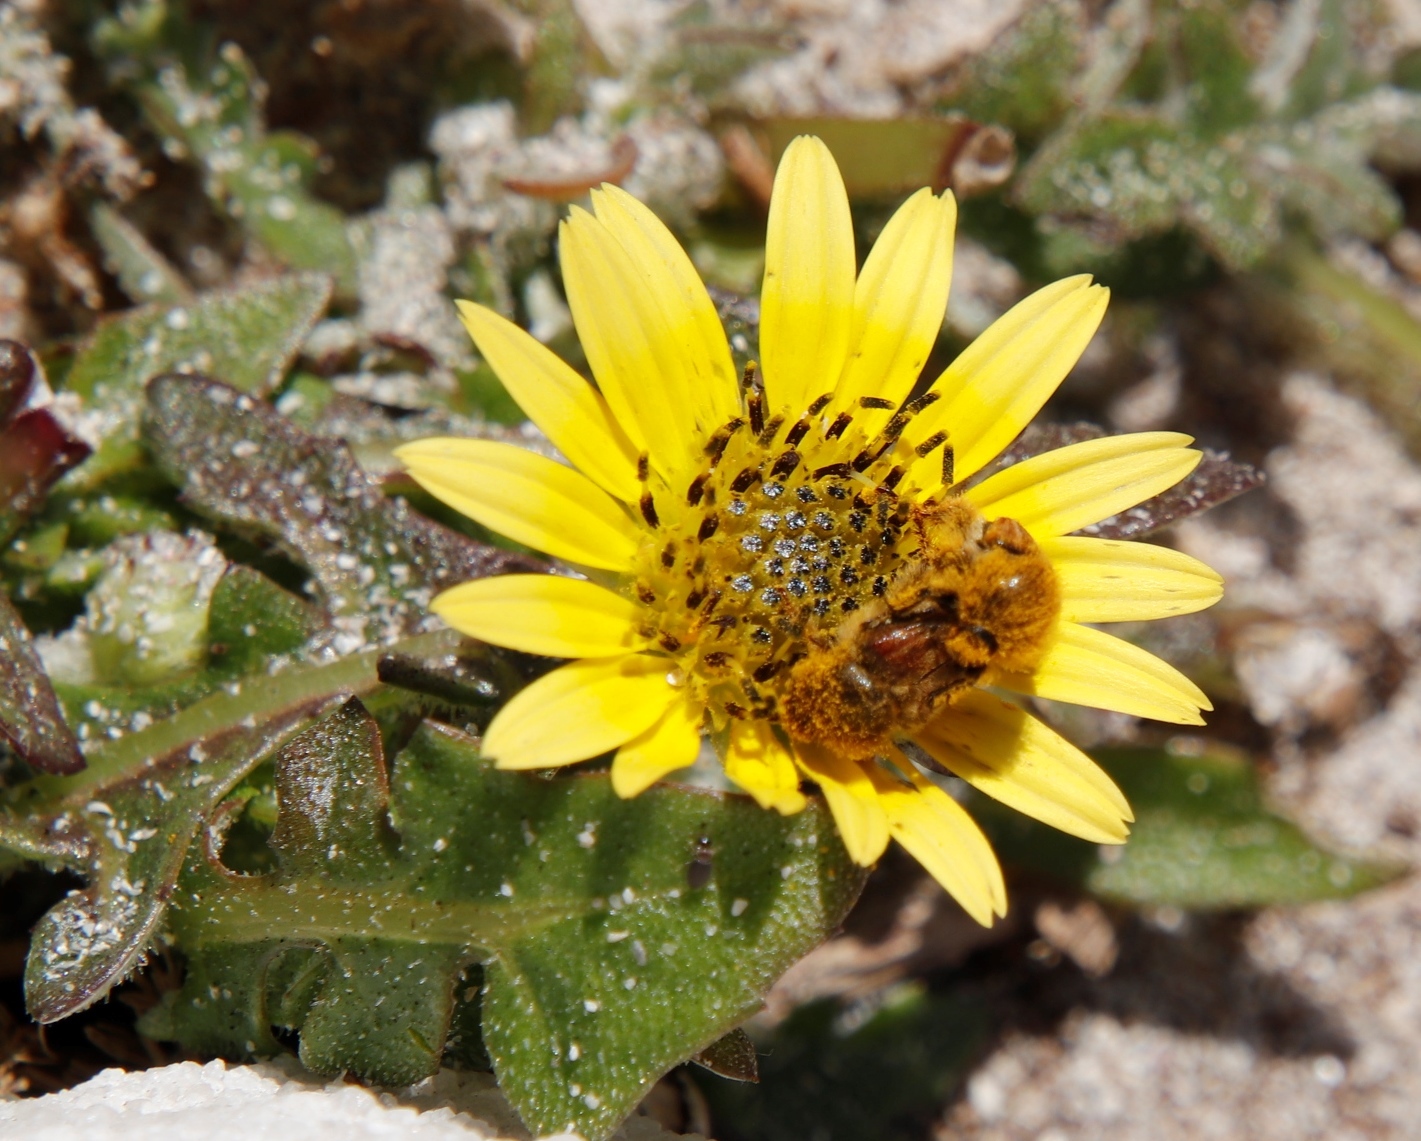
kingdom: Plantae
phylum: Tracheophyta
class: Magnoliopsida
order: Asterales
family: Asteraceae
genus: Arctotheca
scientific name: Arctotheca calendula
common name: Capeweed
